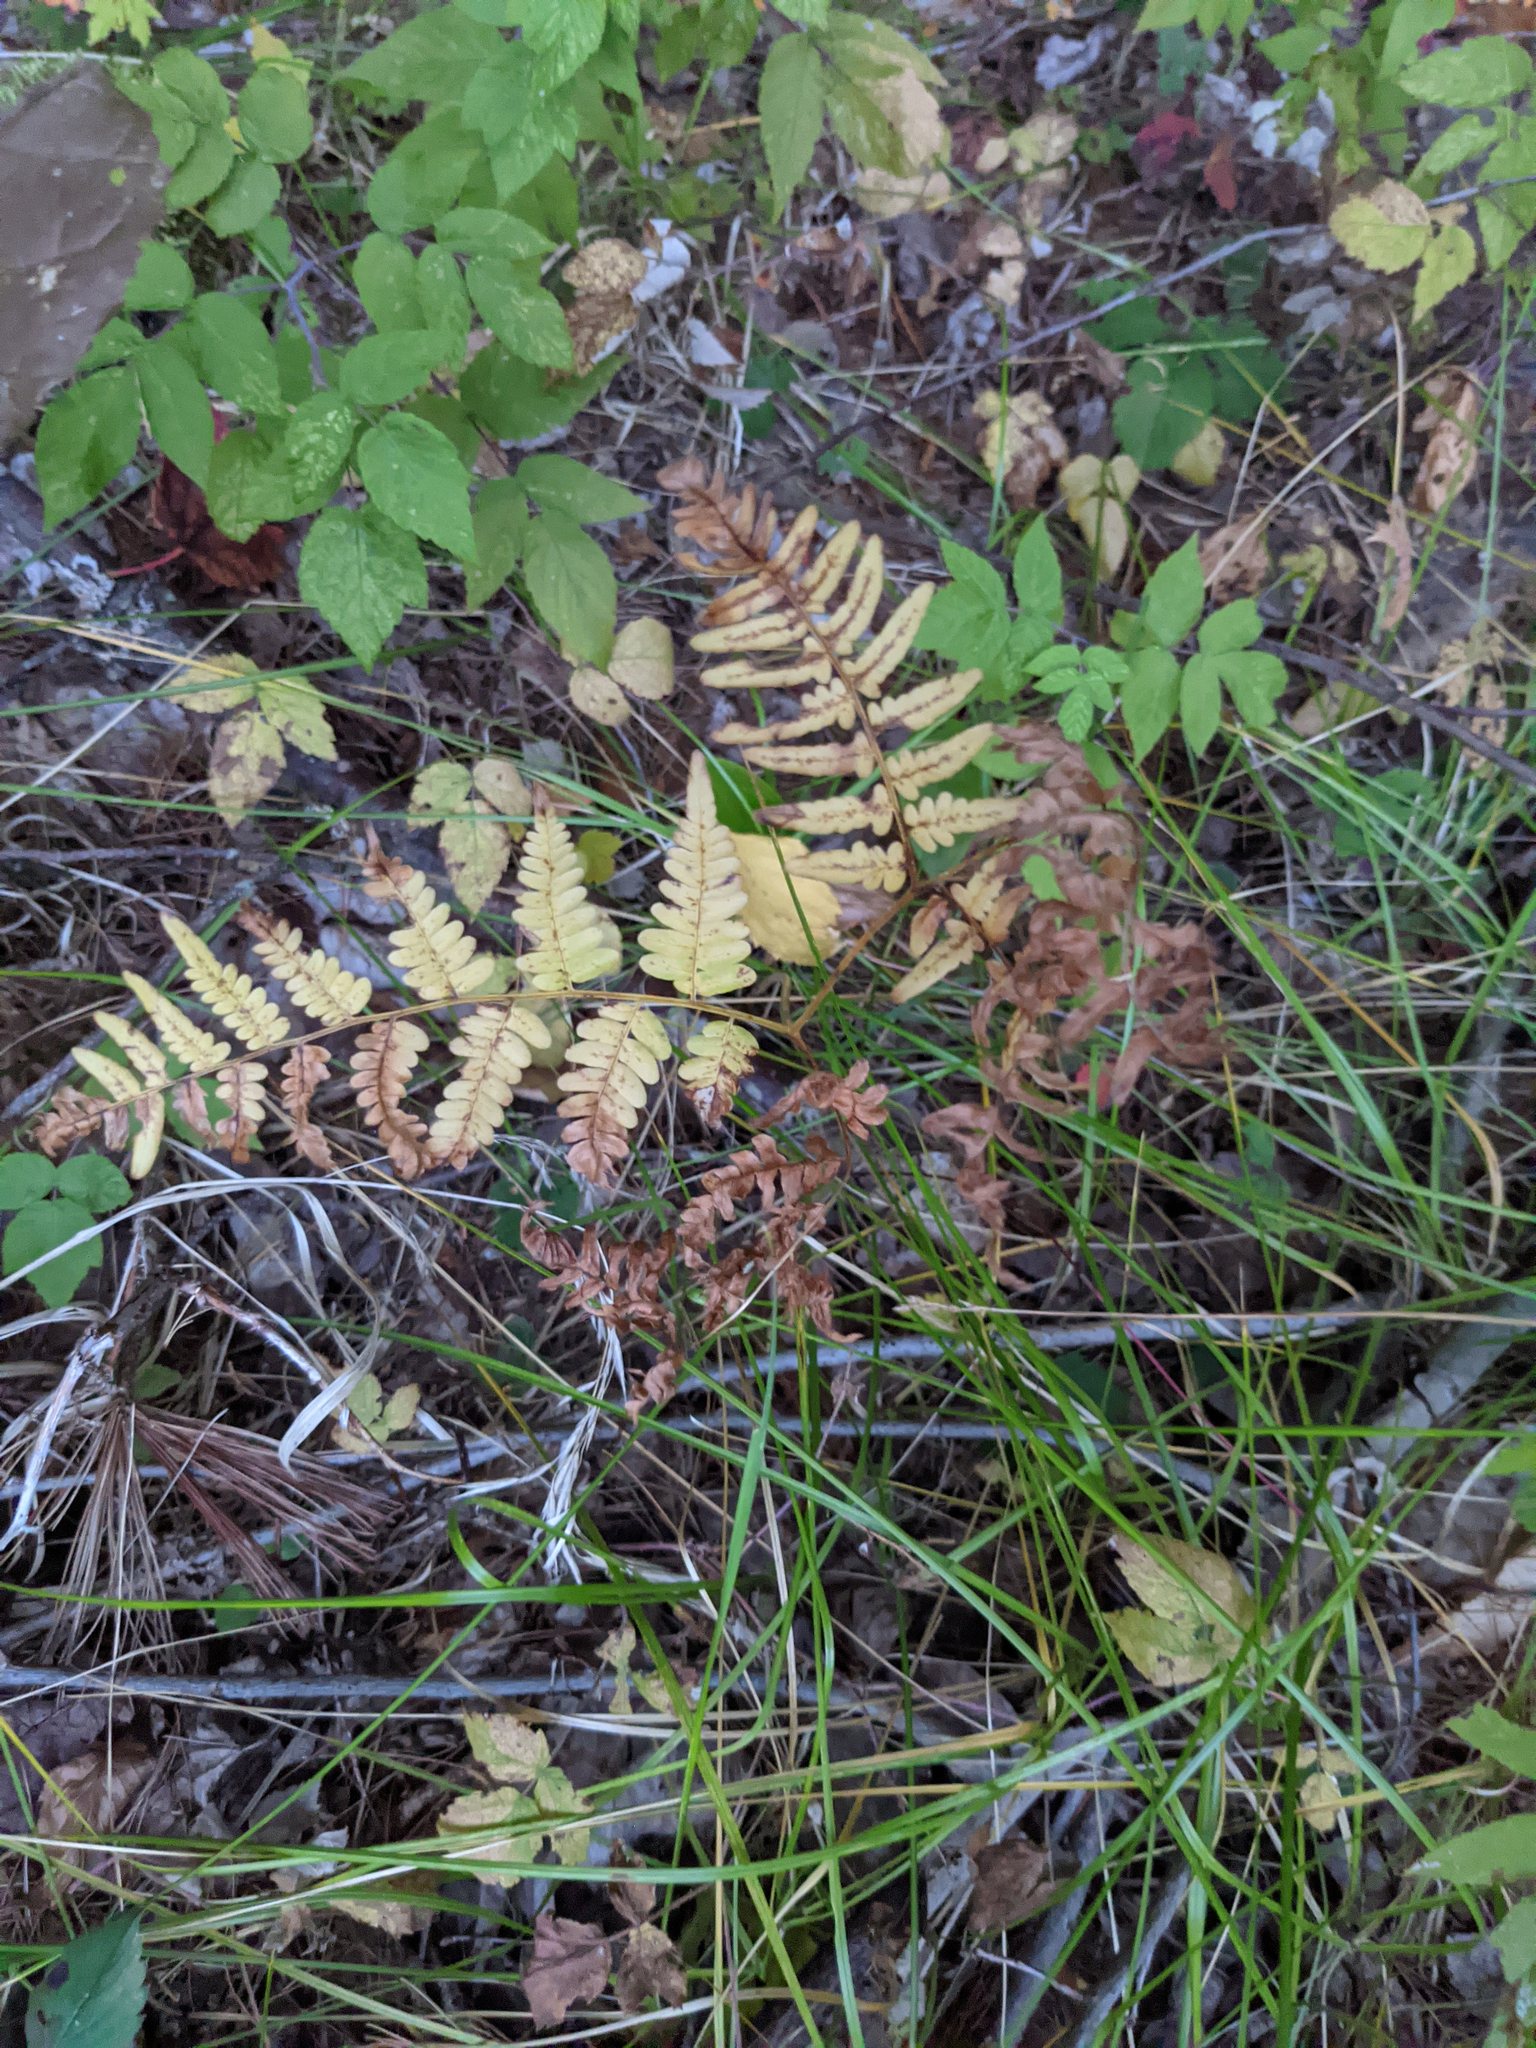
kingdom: Plantae
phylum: Tracheophyta
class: Polypodiopsida
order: Polypodiales
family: Dennstaedtiaceae
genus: Pteridium
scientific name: Pteridium aquilinum
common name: Bracken
